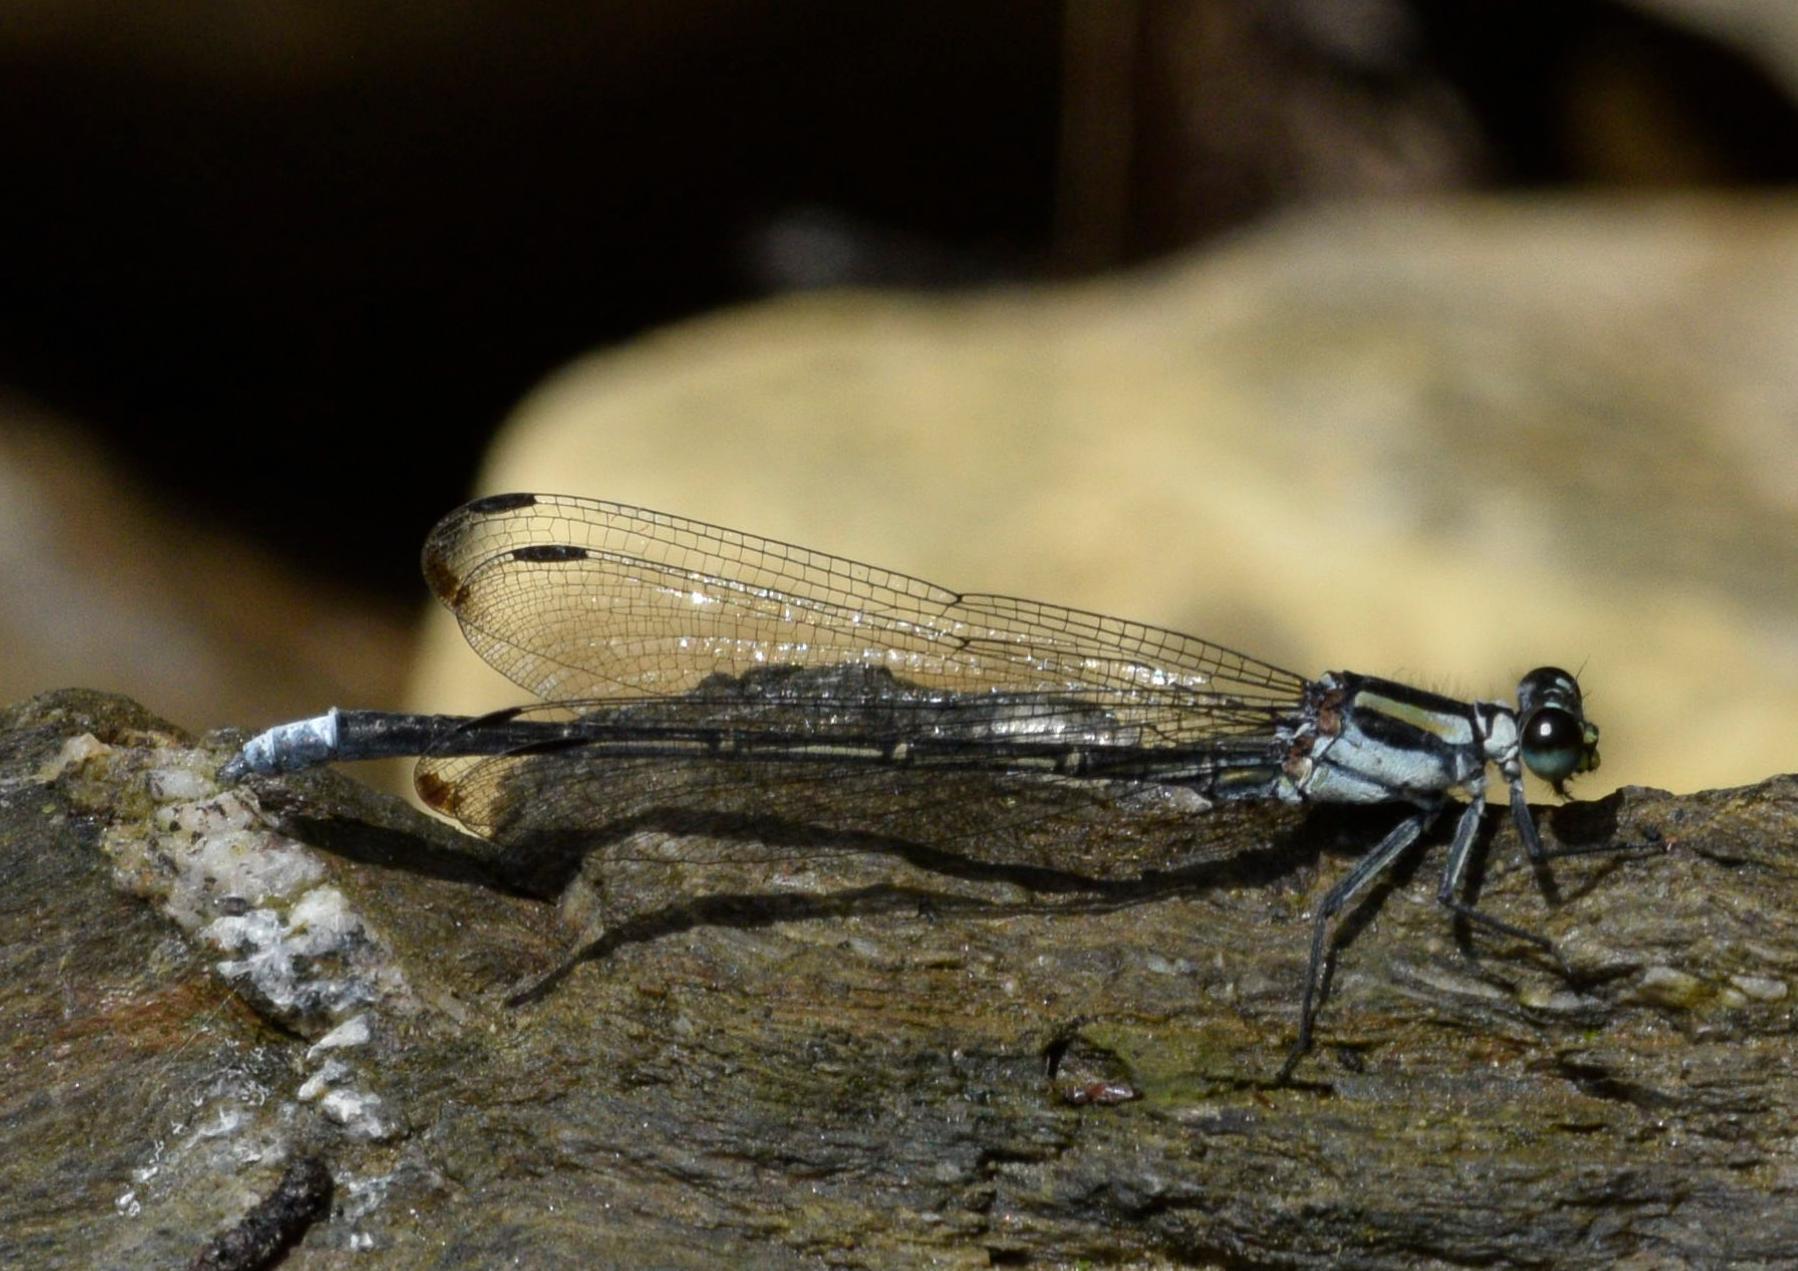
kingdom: Animalia
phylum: Arthropoda
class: Insecta
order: Odonata
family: Euphaeidae
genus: Anisopleura
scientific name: Anisopleura lestoides
